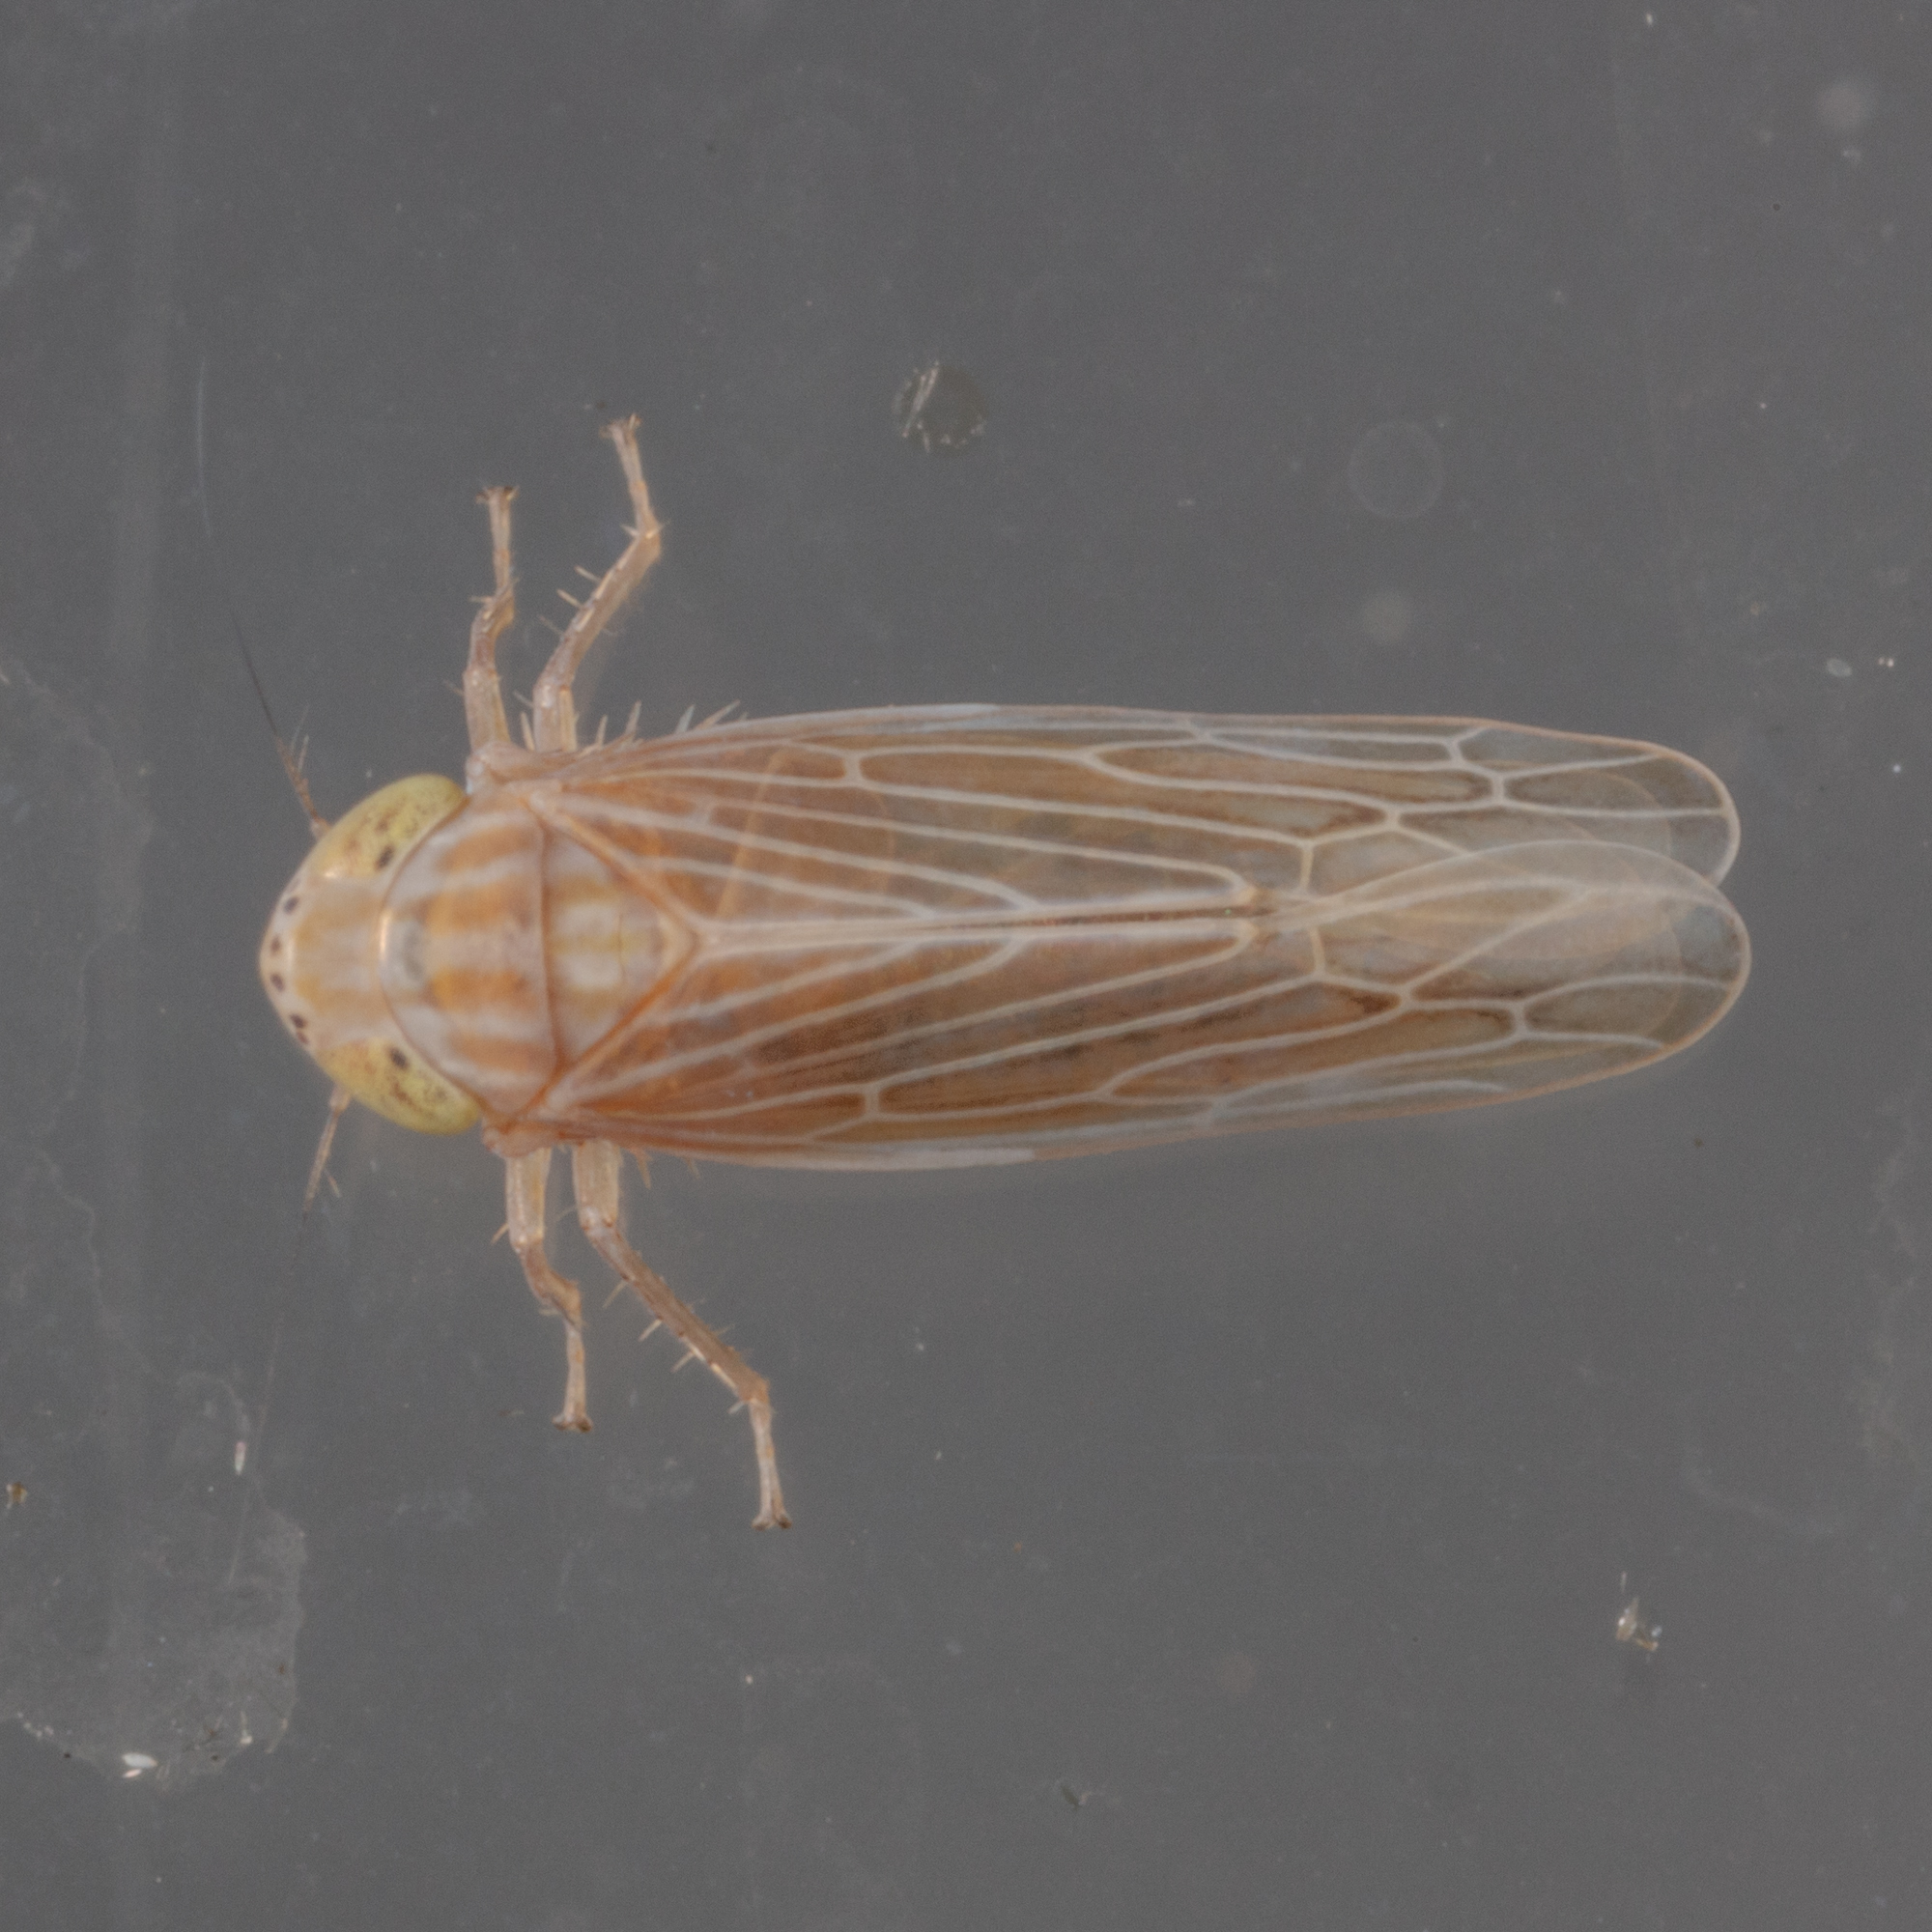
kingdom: Animalia
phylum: Arthropoda
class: Insecta
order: Hemiptera
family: Cicadellidae
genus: Graminella
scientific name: Graminella plana
